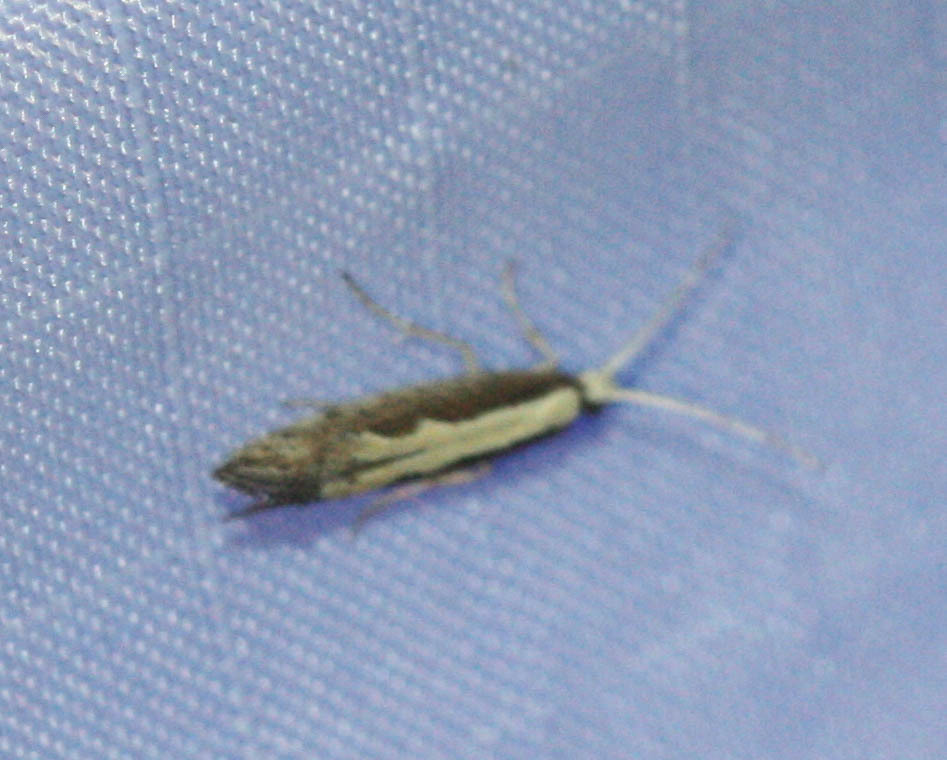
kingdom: Animalia
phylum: Arthropoda
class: Insecta
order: Lepidoptera
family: Plutellidae
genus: Plutella
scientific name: Plutella xylostella
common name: Diamond-back moth
